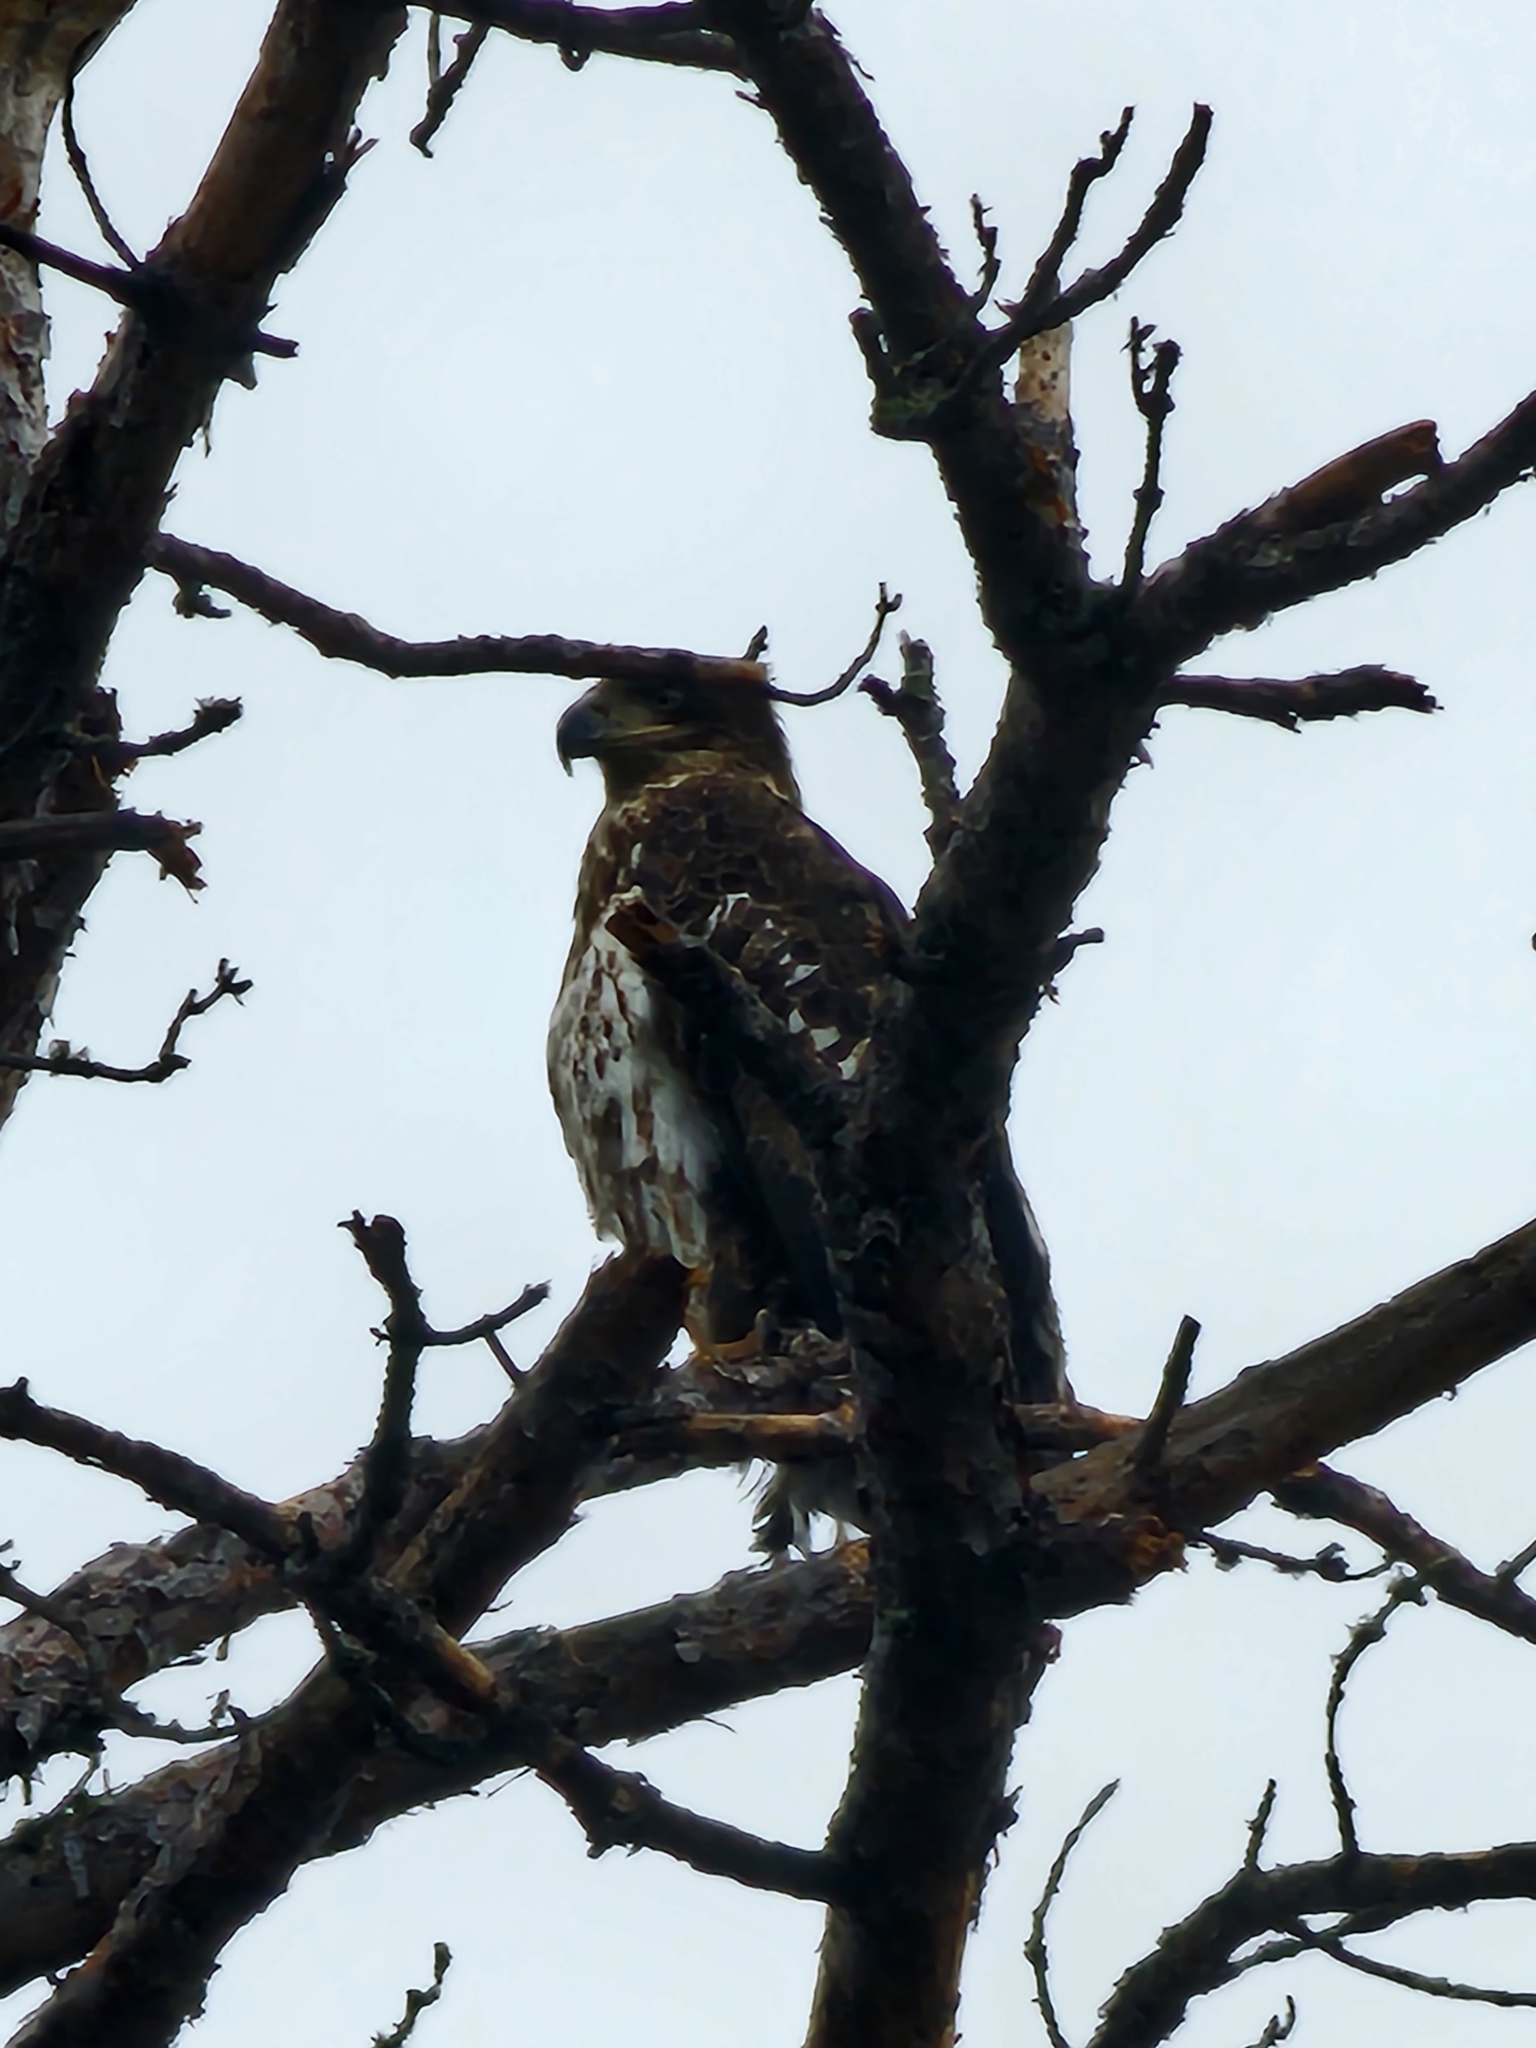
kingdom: Animalia
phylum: Chordata
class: Aves
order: Accipitriformes
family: Accipitridae
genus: Haliaeetus
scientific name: Haliaeetus leucocephalus
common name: Bald eagle
